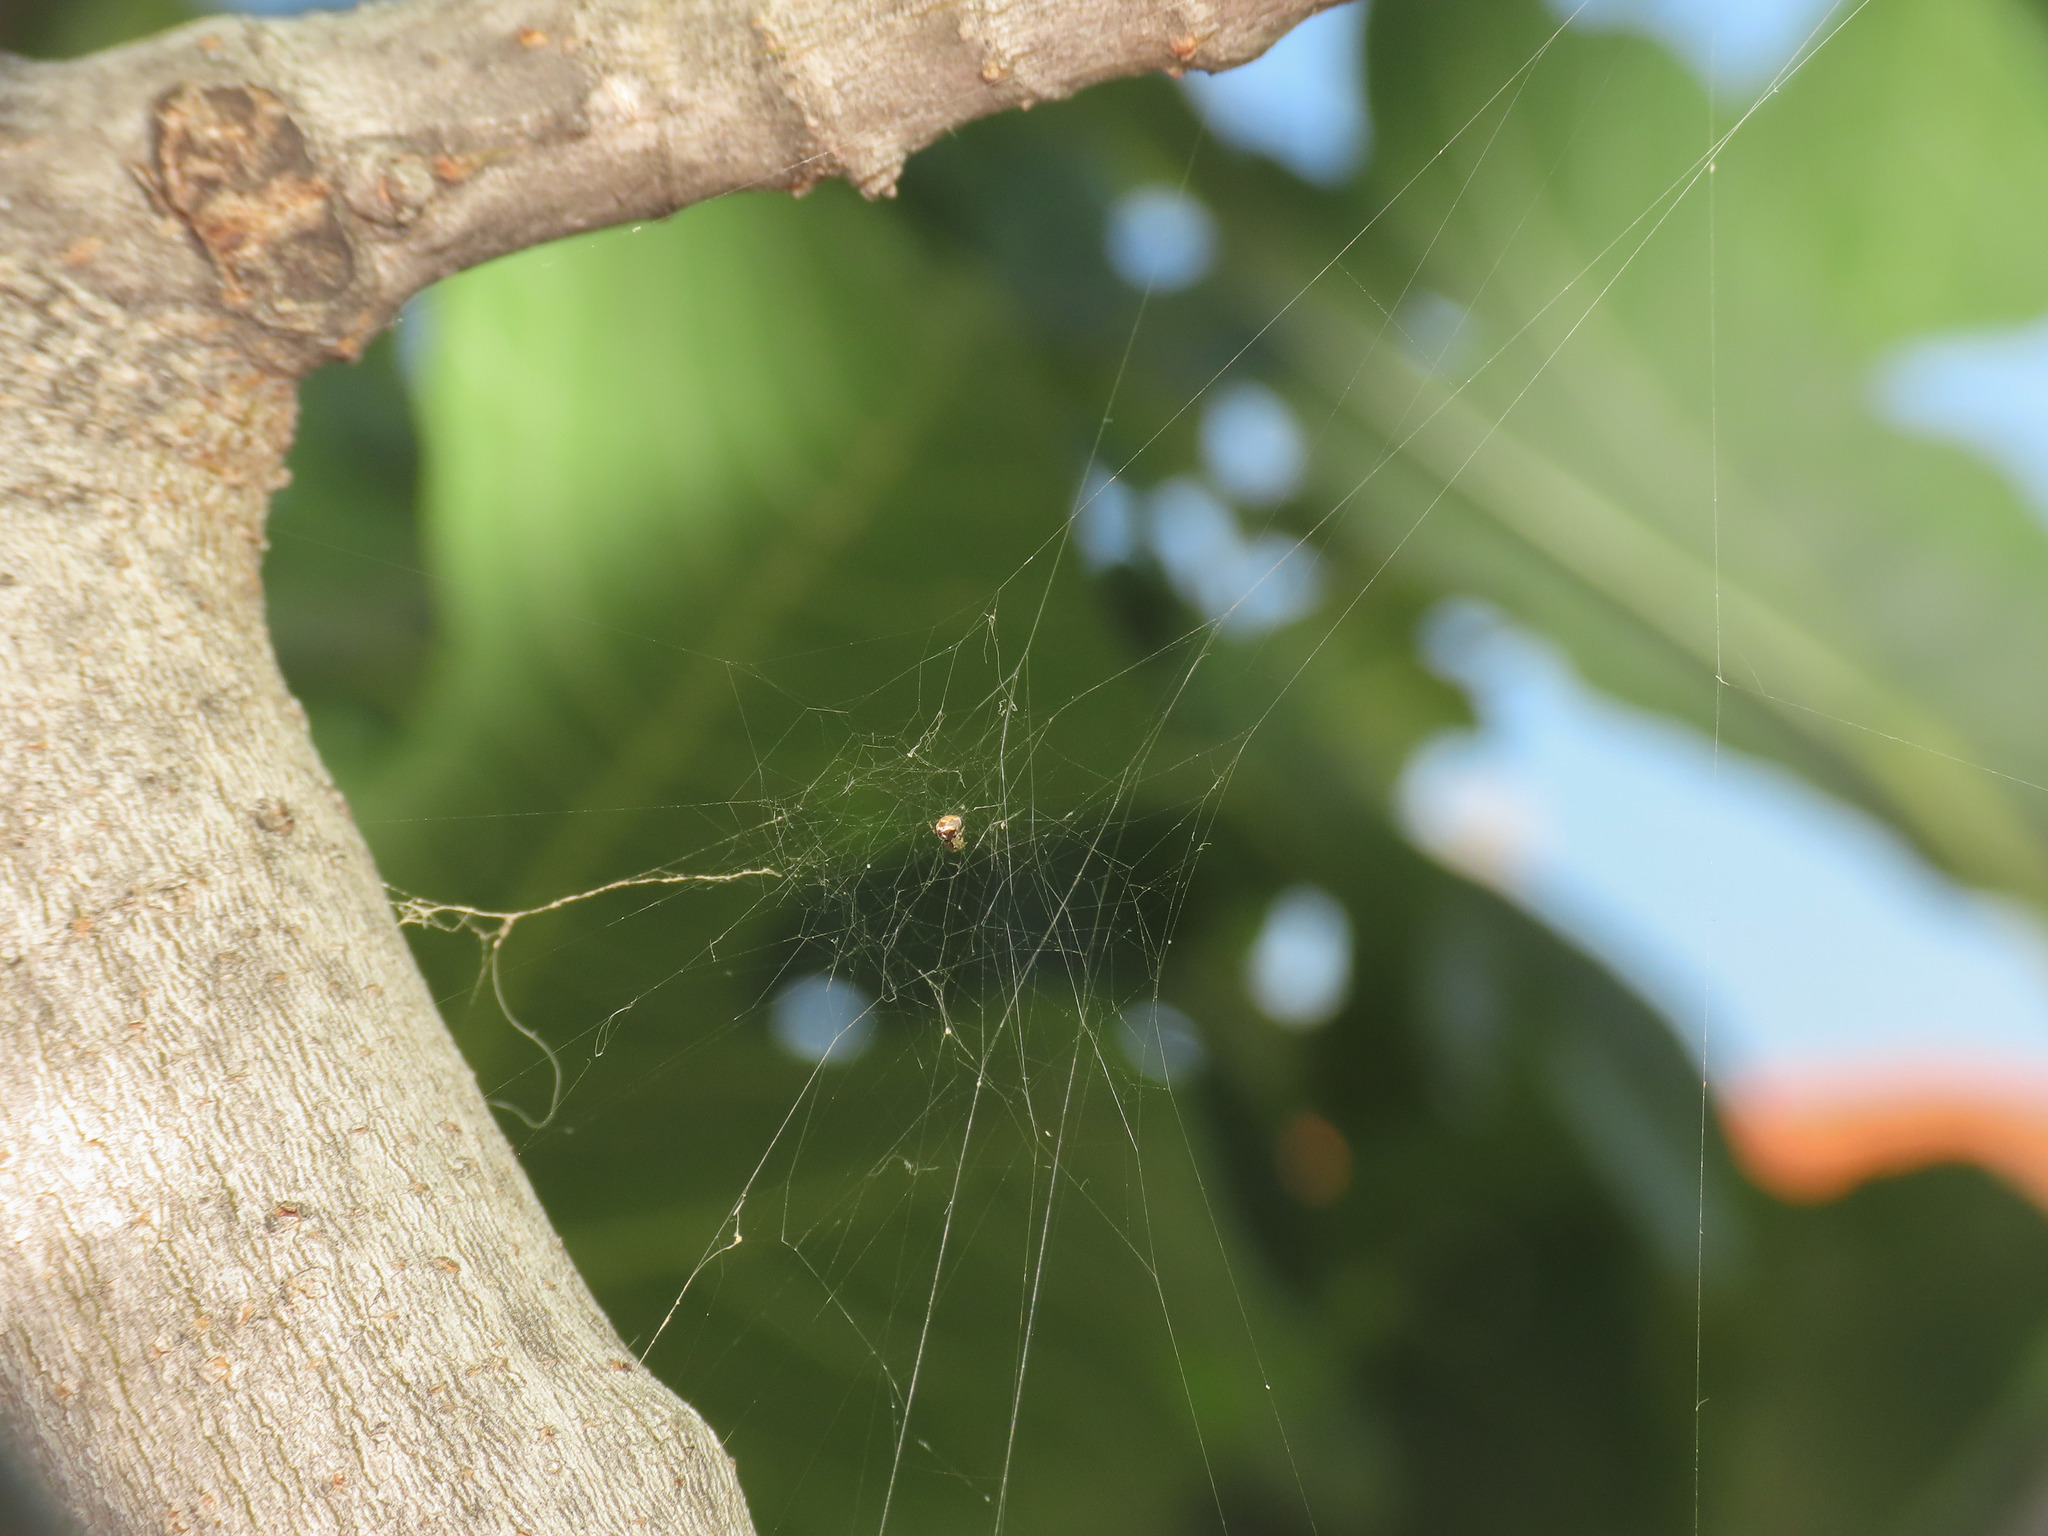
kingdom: Animalia
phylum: Arthropoda
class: Arachnida
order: Araneae
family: Theridiidae
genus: Parasteatoda
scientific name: Parasteatoda lunata
